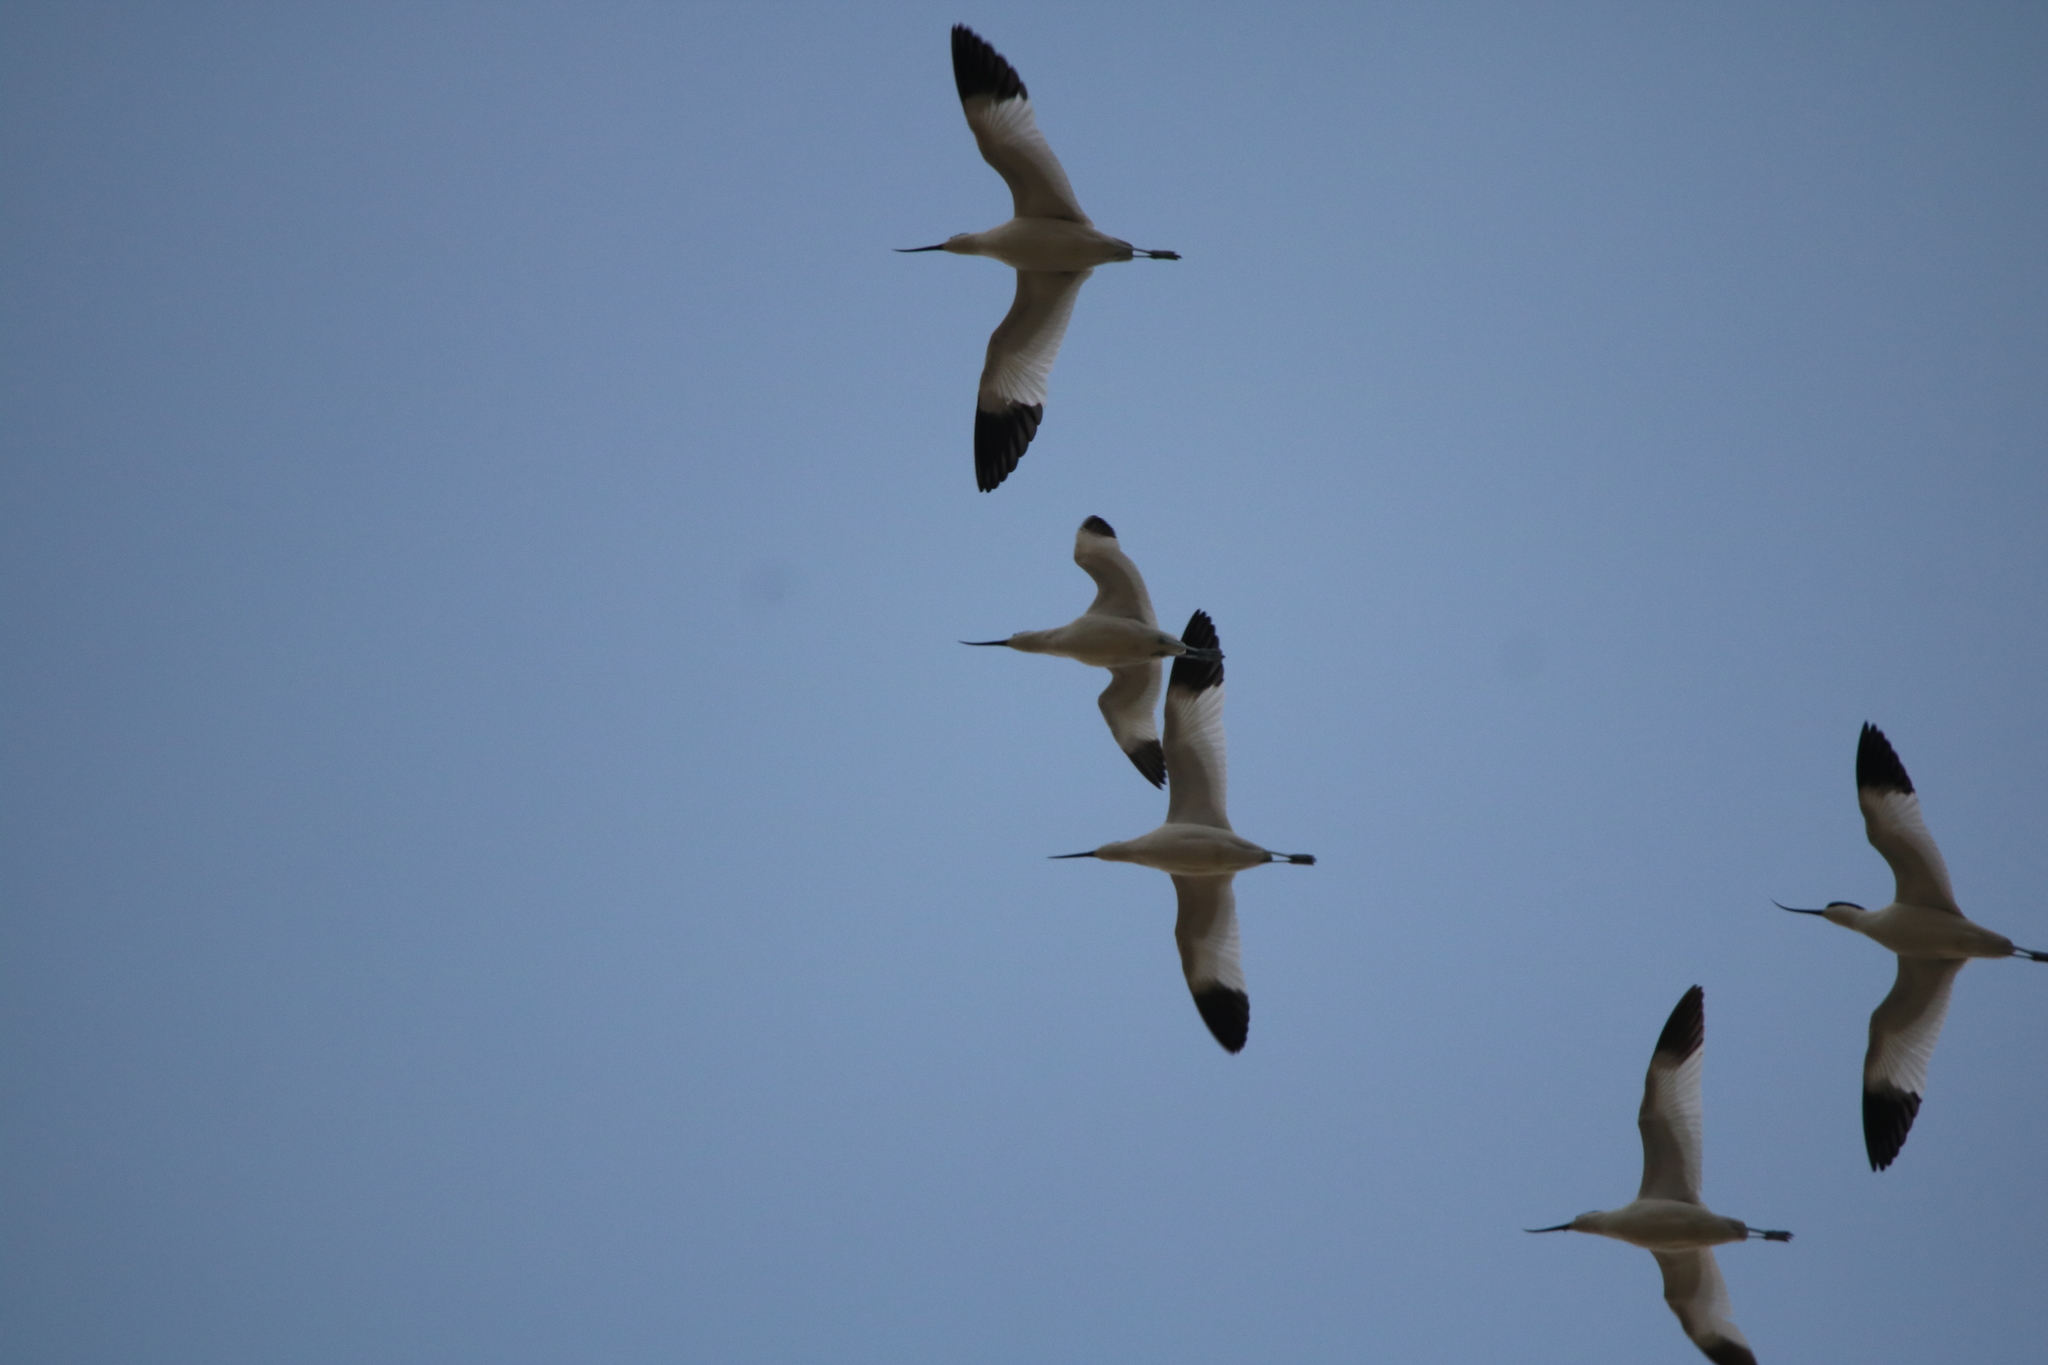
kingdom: Animalia
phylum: Chordata
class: Aves
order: Charadriiformes
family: Recurvirostridae
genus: Recurvirostra
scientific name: Recurvirostra avosetta
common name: Pied avocet
